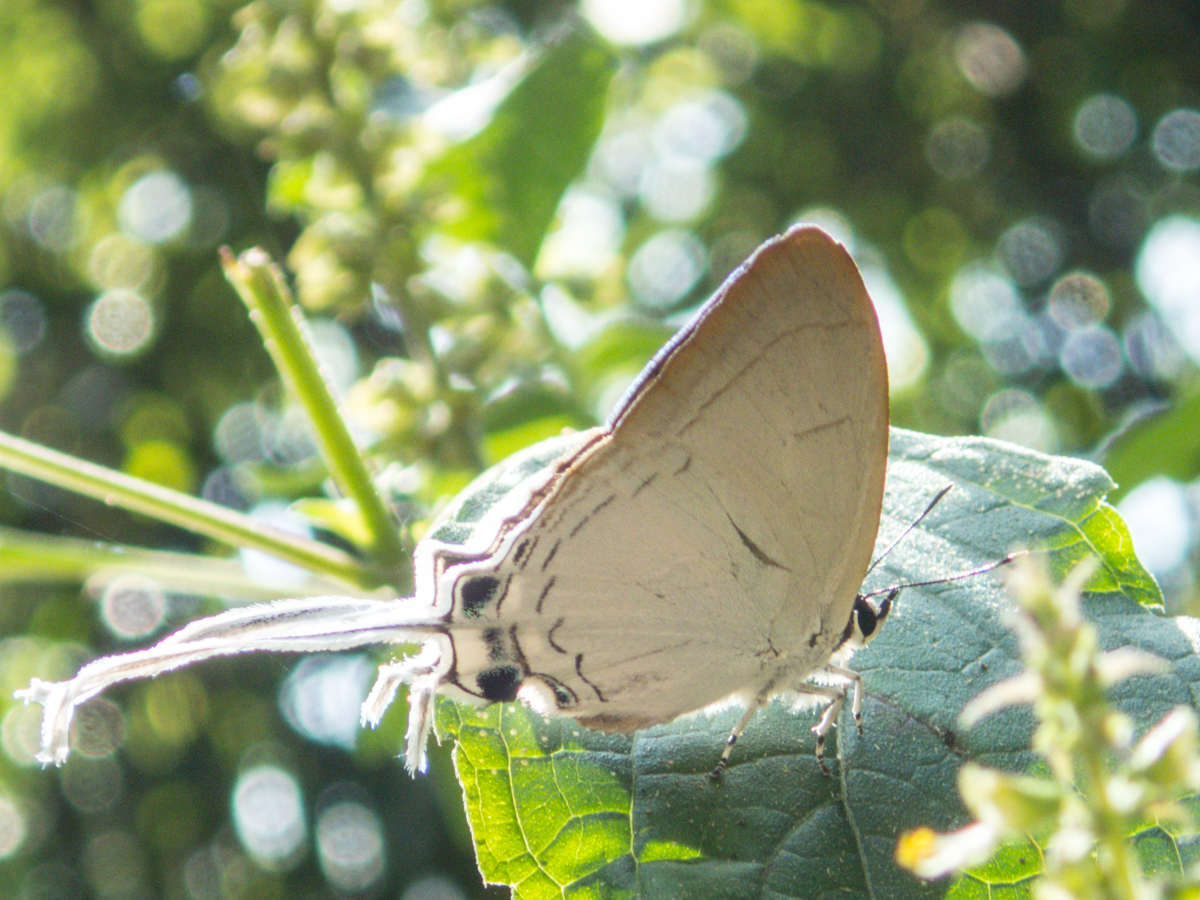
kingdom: Animalia
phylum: Arthropoda
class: Insecta
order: Lepidoptera
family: Lycaenidae
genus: Cheritra
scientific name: Cheritra freja
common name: Common imperial
